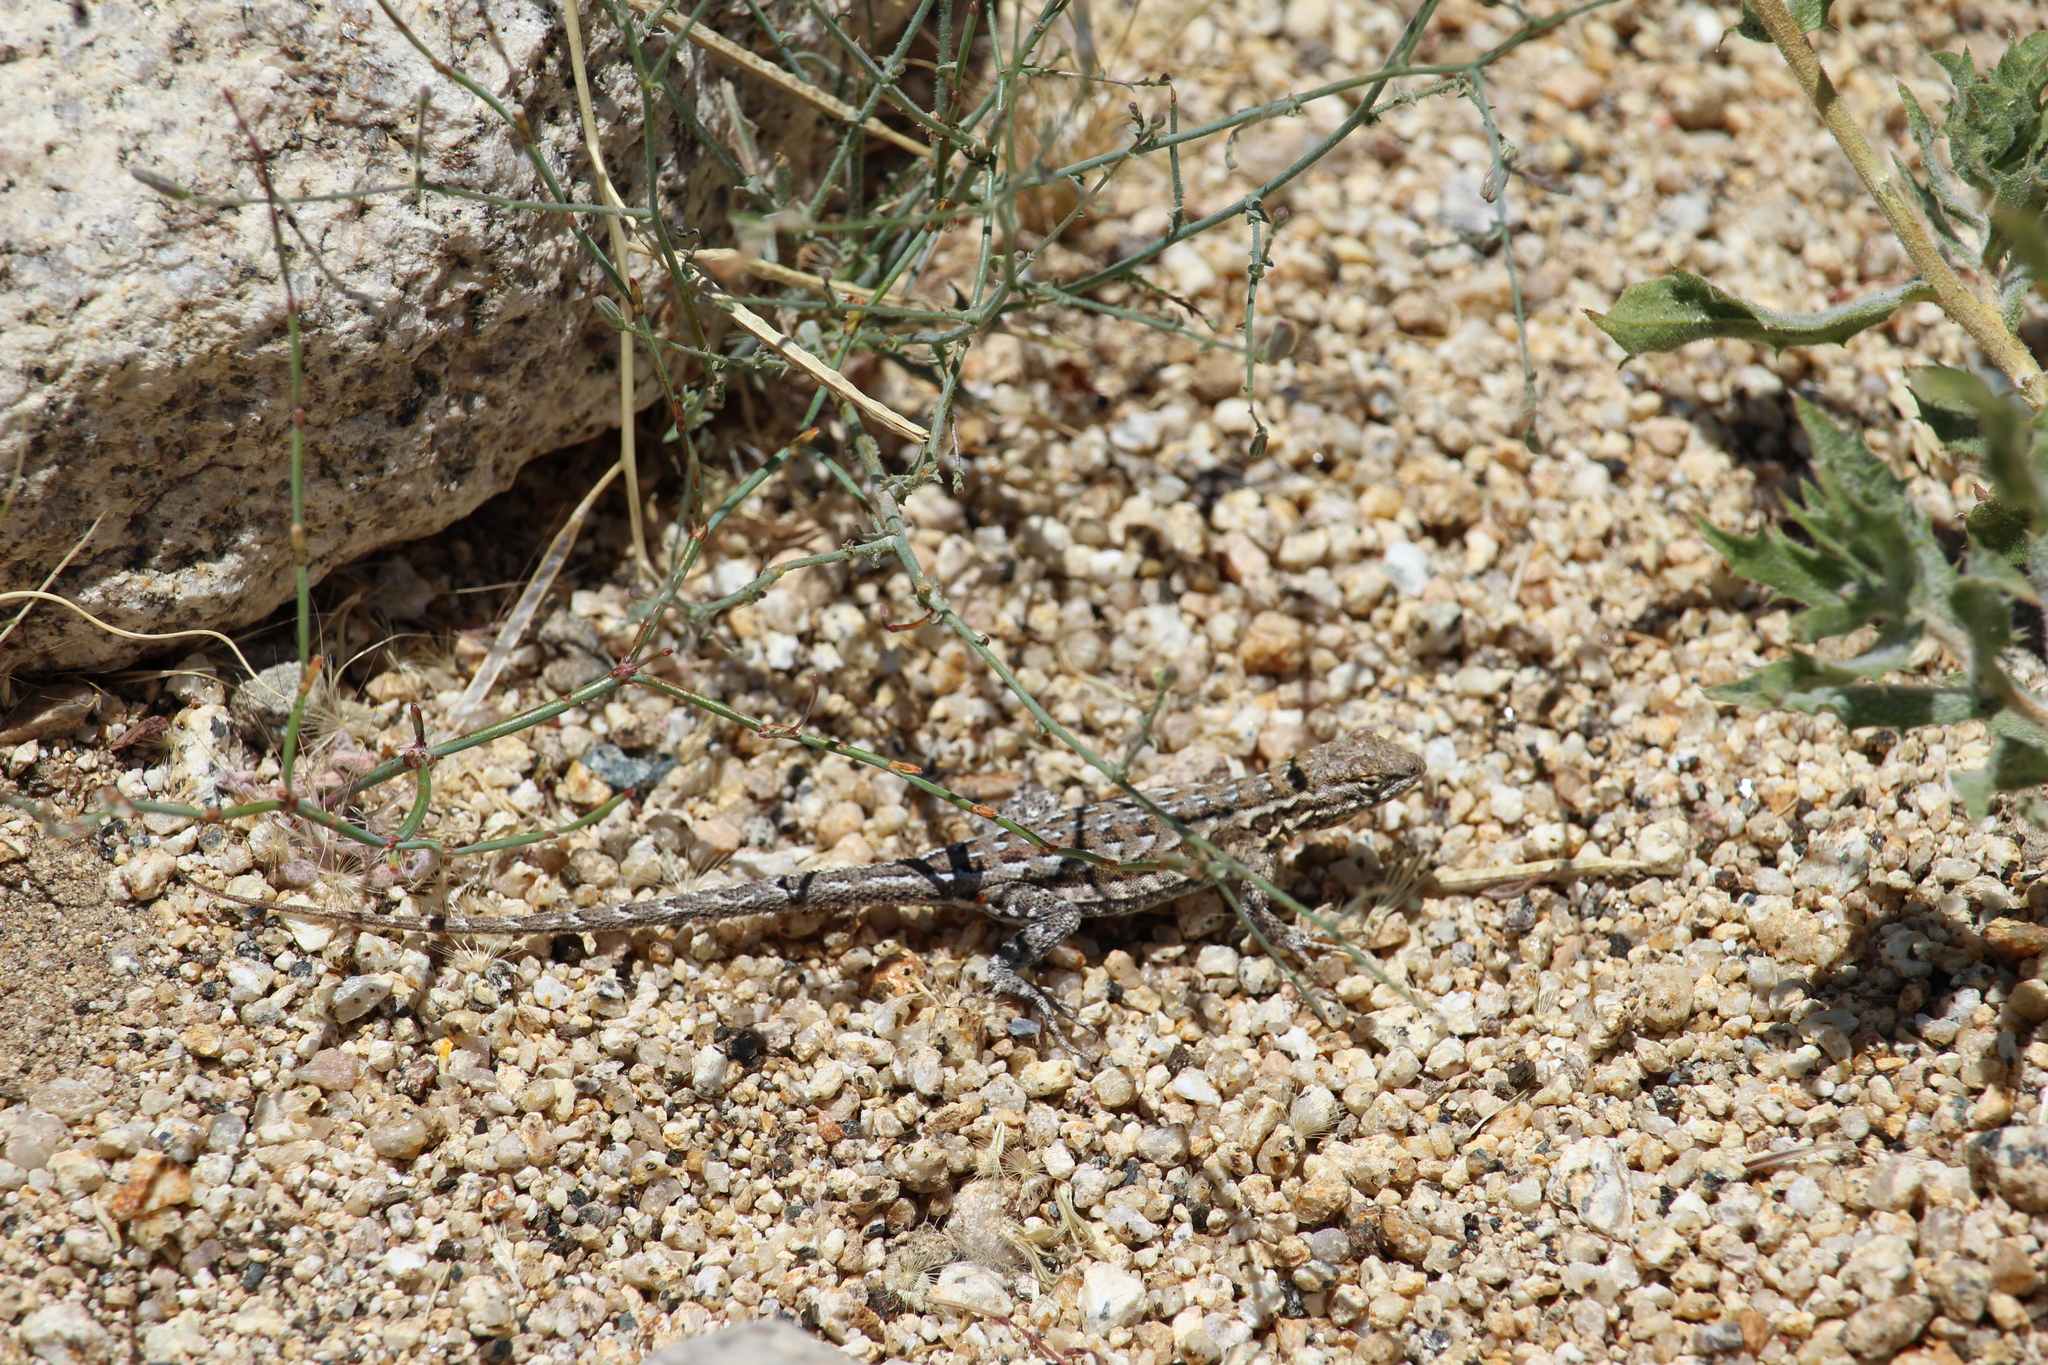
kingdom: Animalia
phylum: Chordata
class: Squamata
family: Phrynosomatidae
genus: Uta
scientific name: Uta stansburiana
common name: Side-blotched lizard
